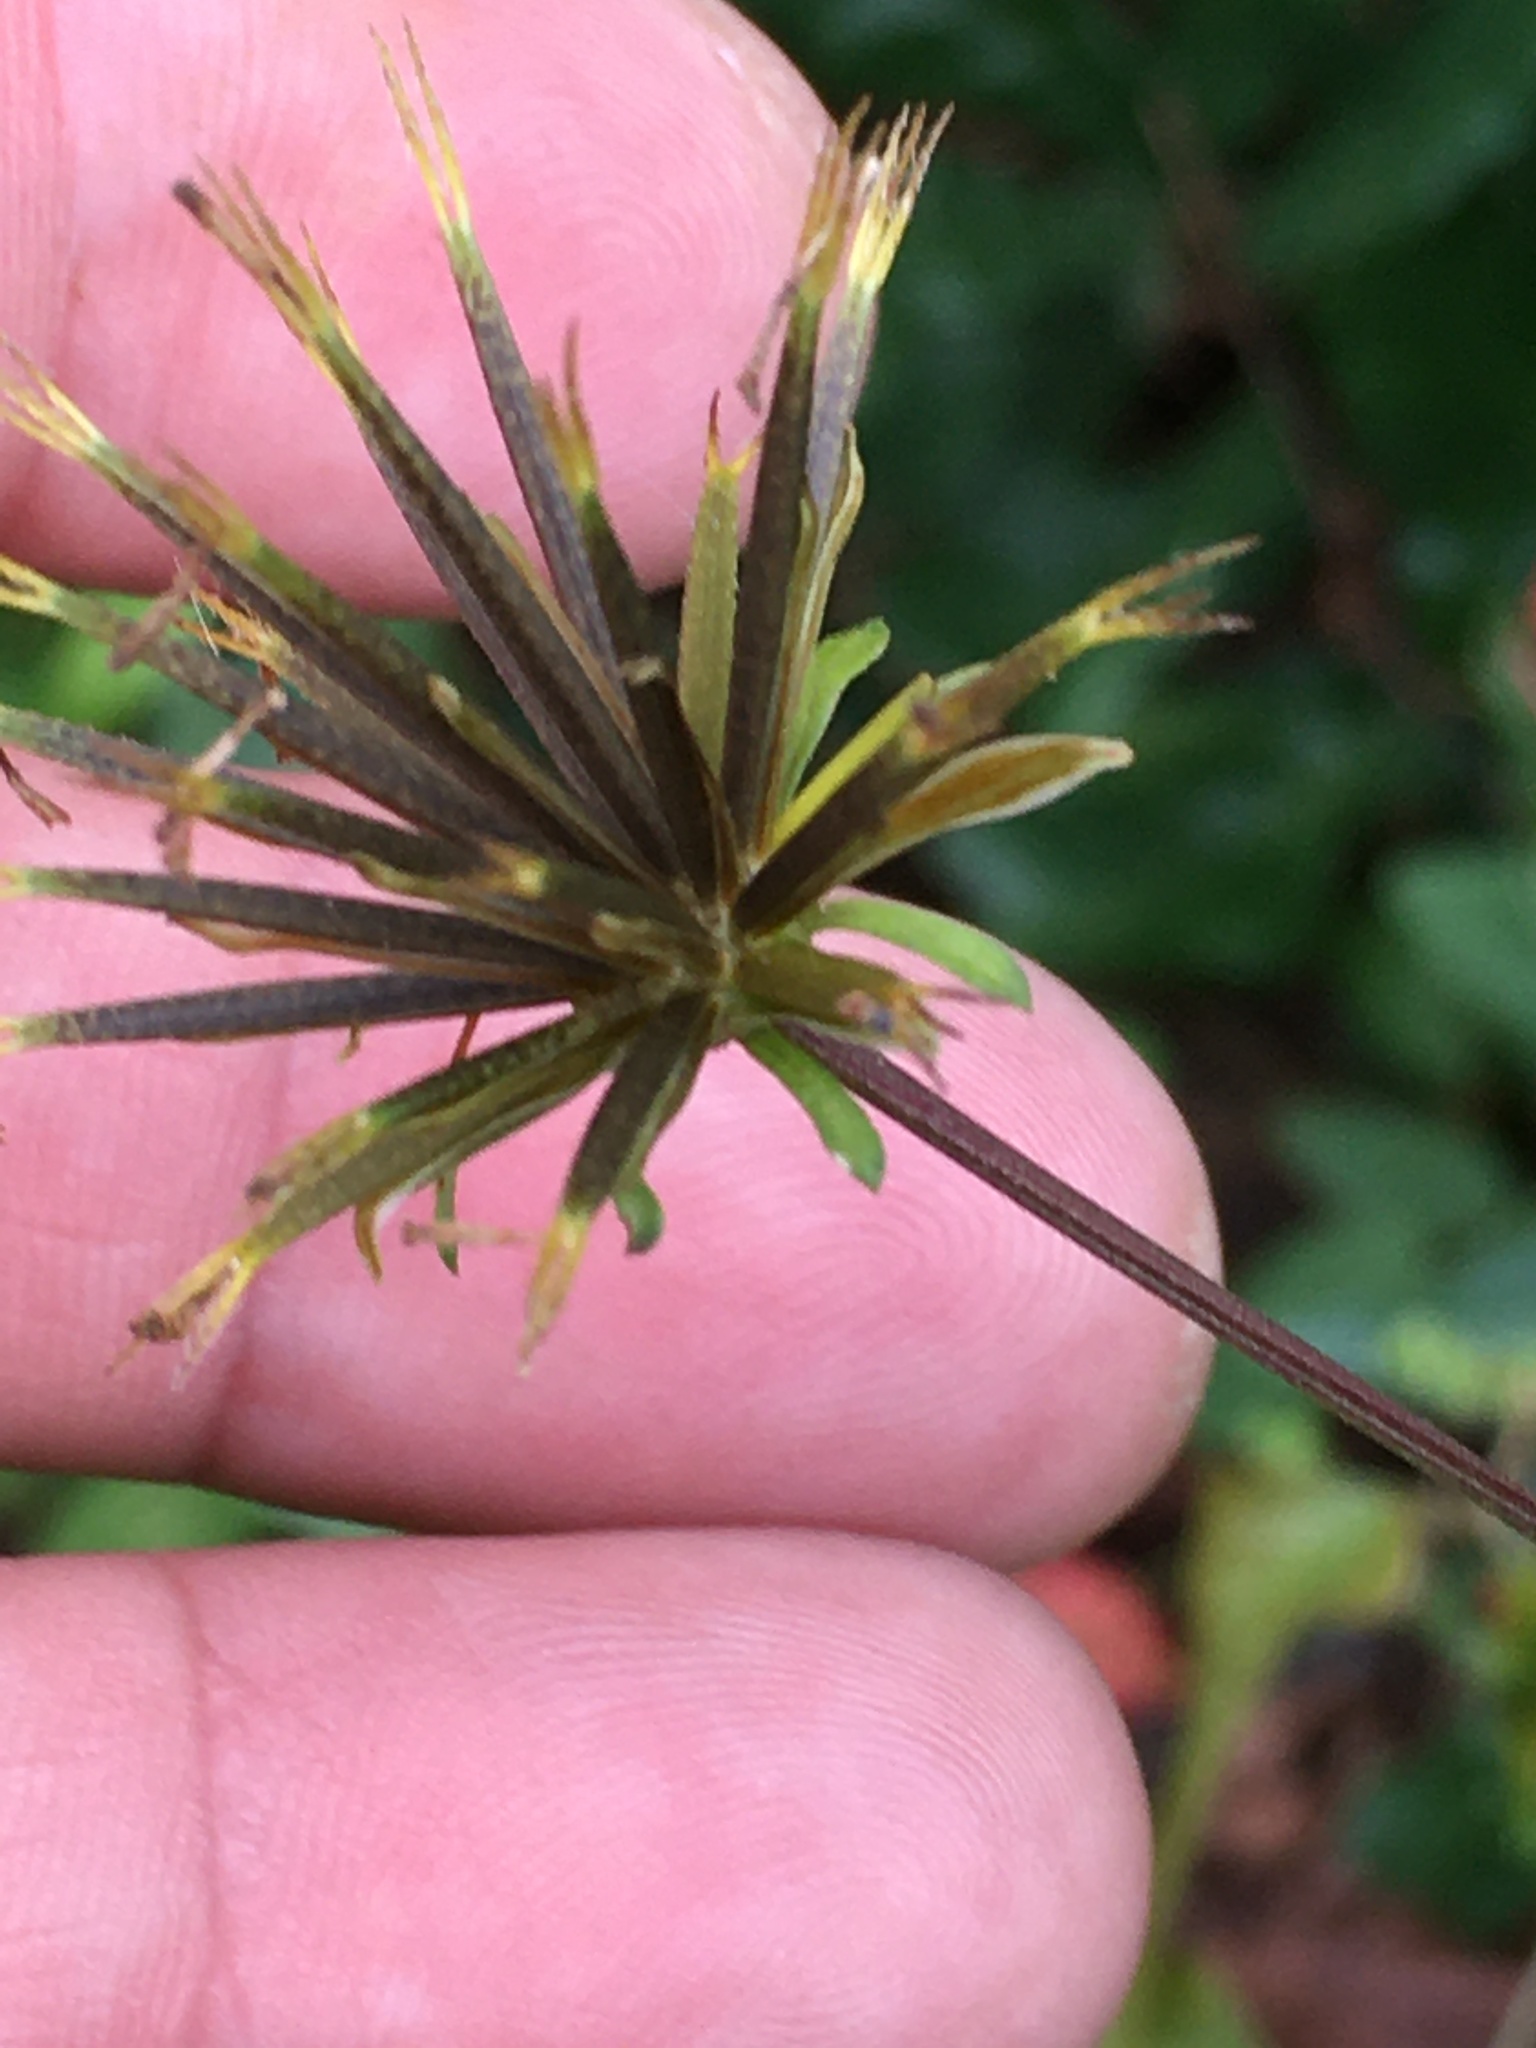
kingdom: Plantae
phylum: Tracheophyta
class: Magnoliopsida
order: Asterales
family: Asteraceae
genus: Bidens
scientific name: Bidens bipinnata
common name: Spanish-needles
